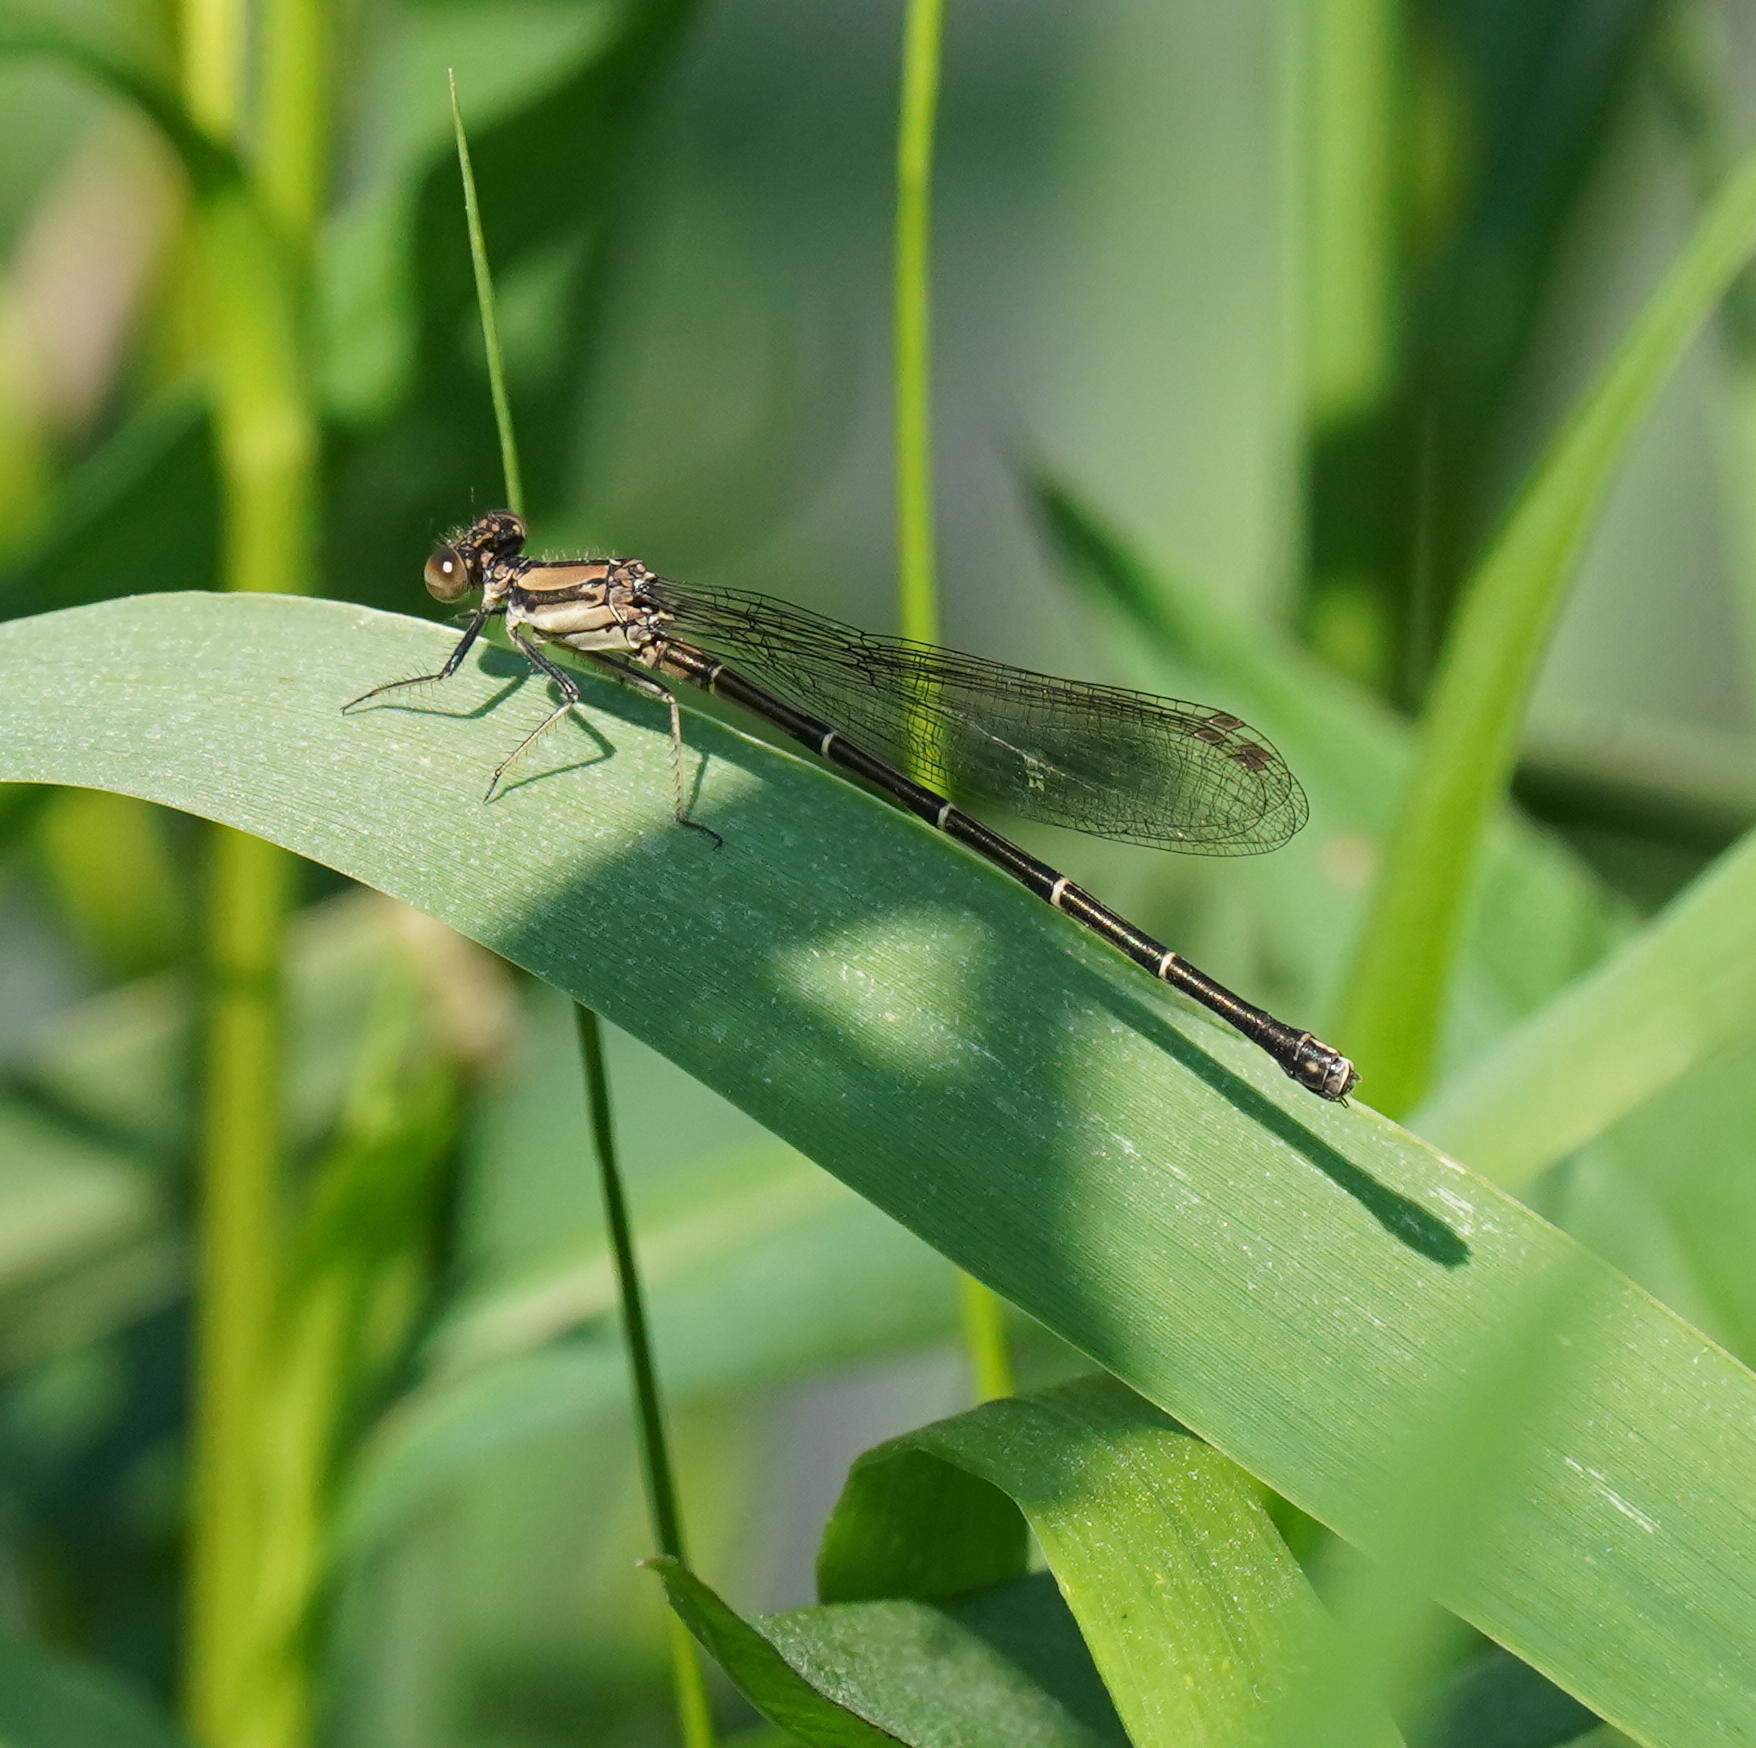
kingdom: Animalia
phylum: Arthropoda
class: Insecta
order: Odonata
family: Coenagrionidae
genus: Argia
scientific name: Argia tibialis
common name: Blue-tipped dancer
